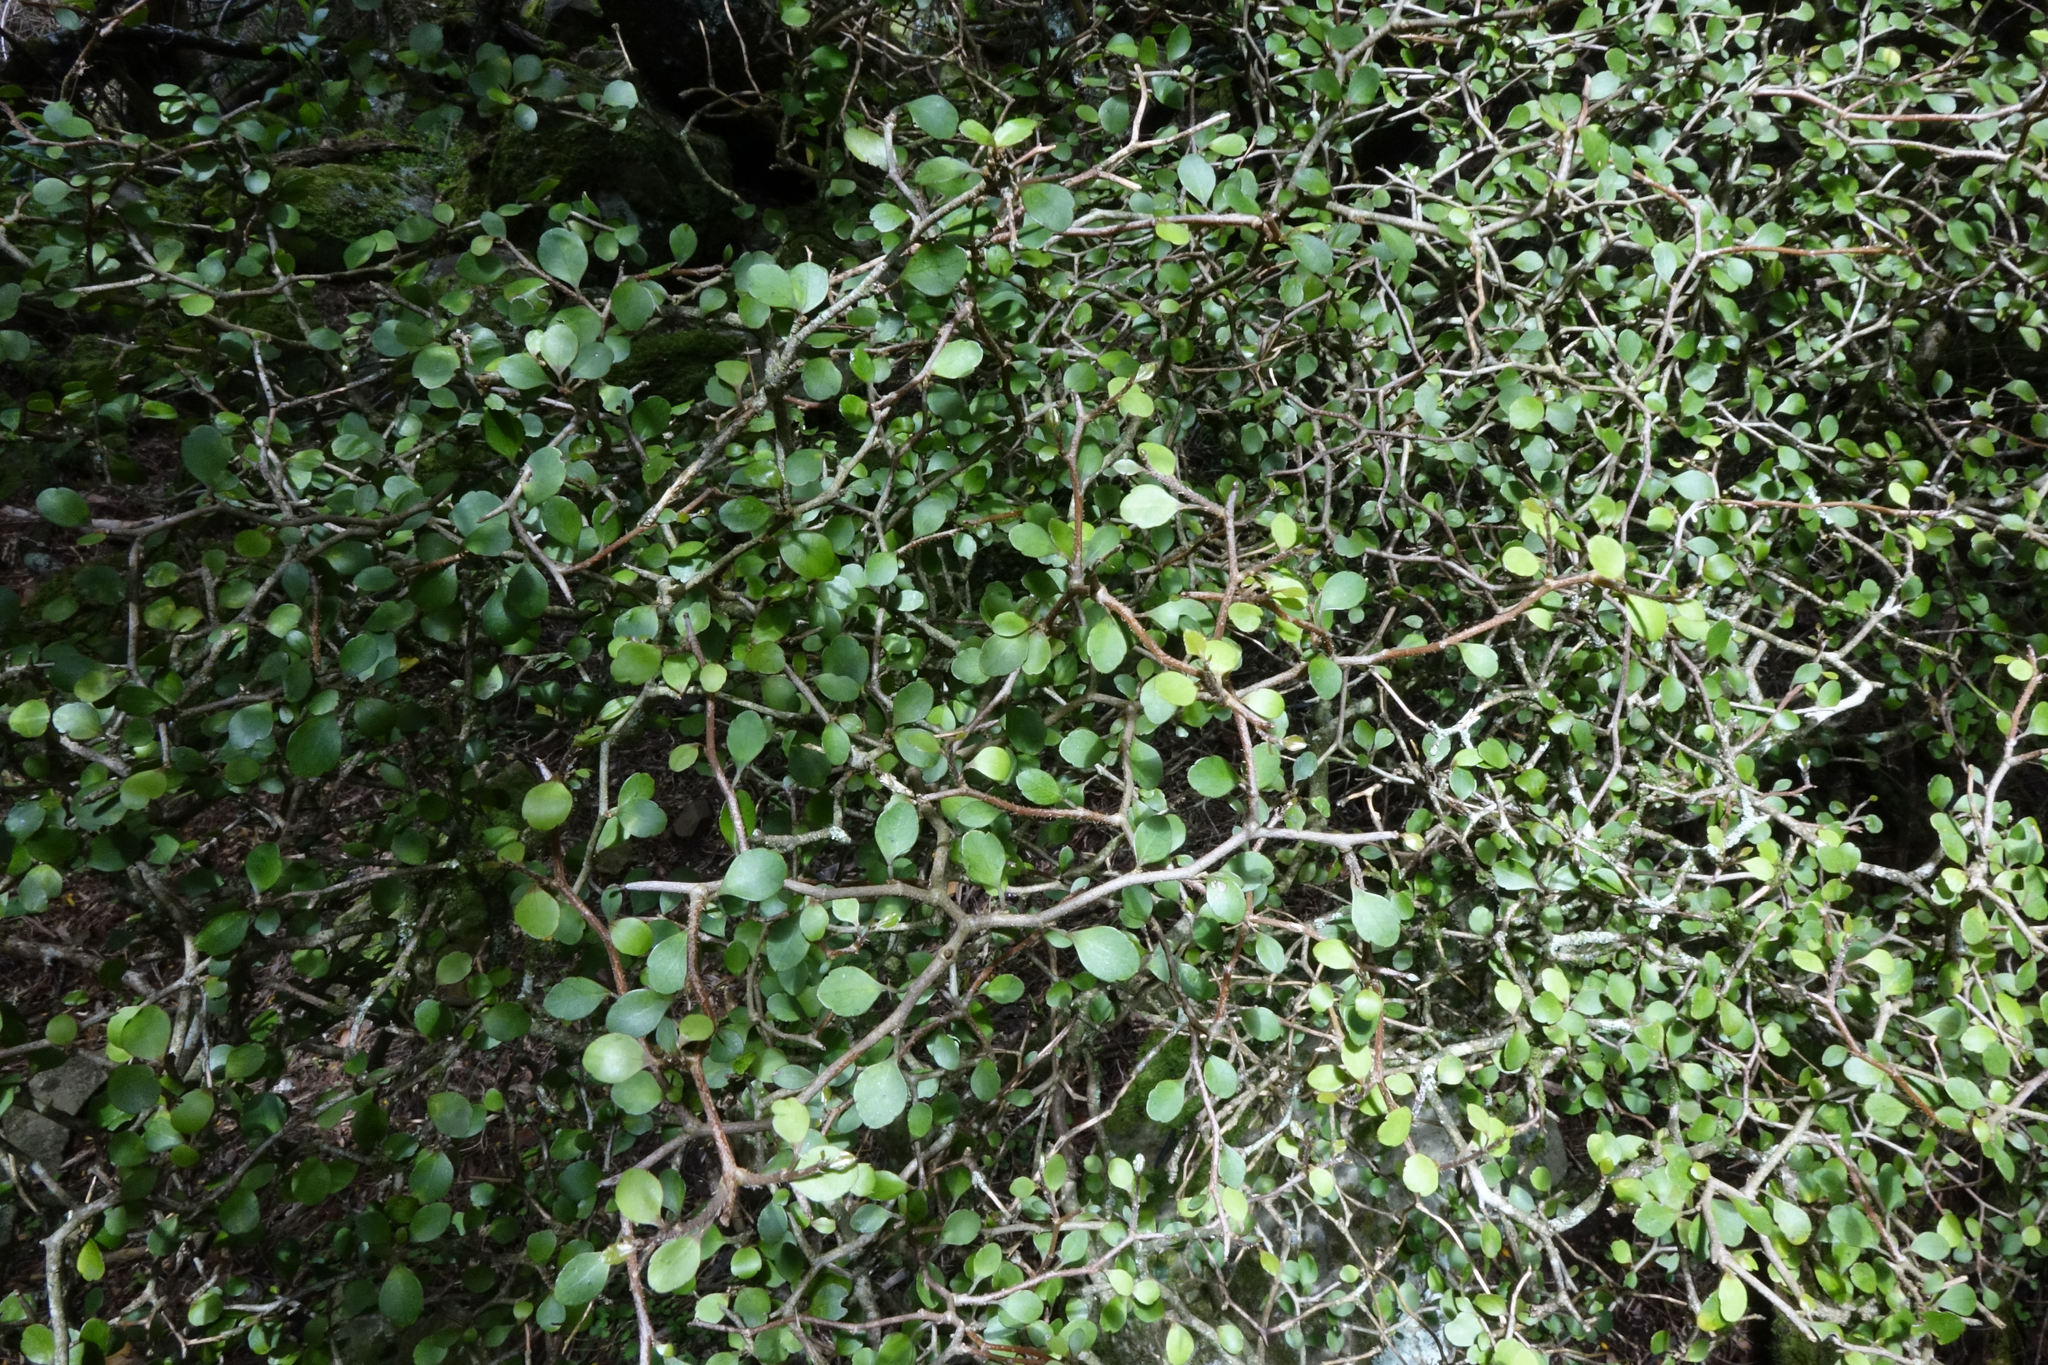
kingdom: Plantae
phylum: Tracheophyta
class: Magnoliopsida
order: Apiales
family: Araliaceae
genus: Raukaua
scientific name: Raukaua anomalus
